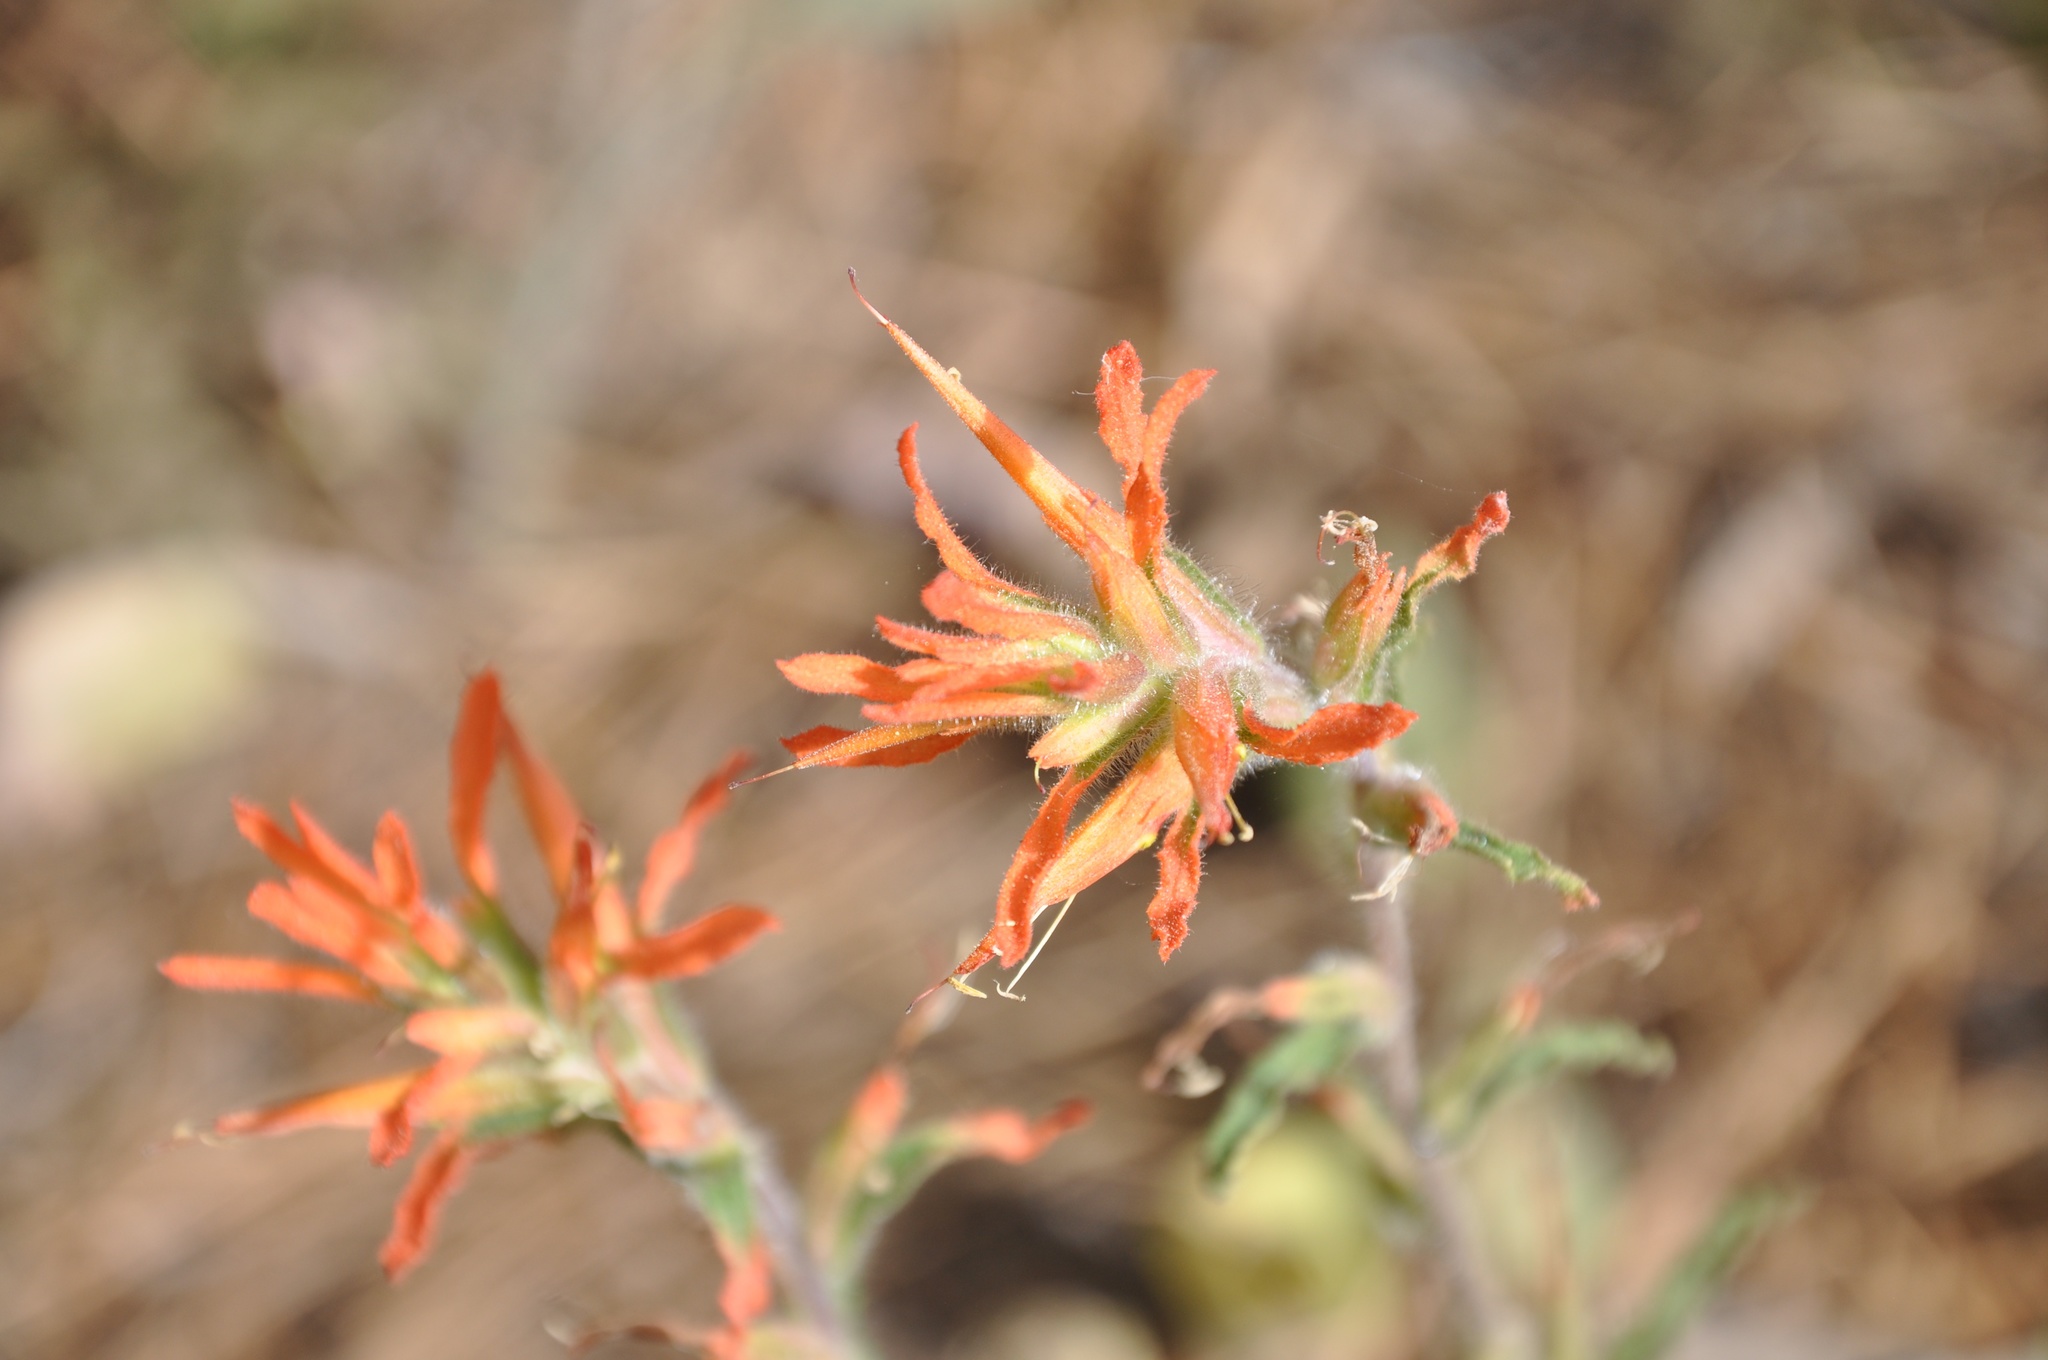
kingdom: Plantae
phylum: Tracheophyta
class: Magnoliopsida
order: Lamiales
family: Orobanchaceae
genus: Castilleja
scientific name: Castilleja disticha
